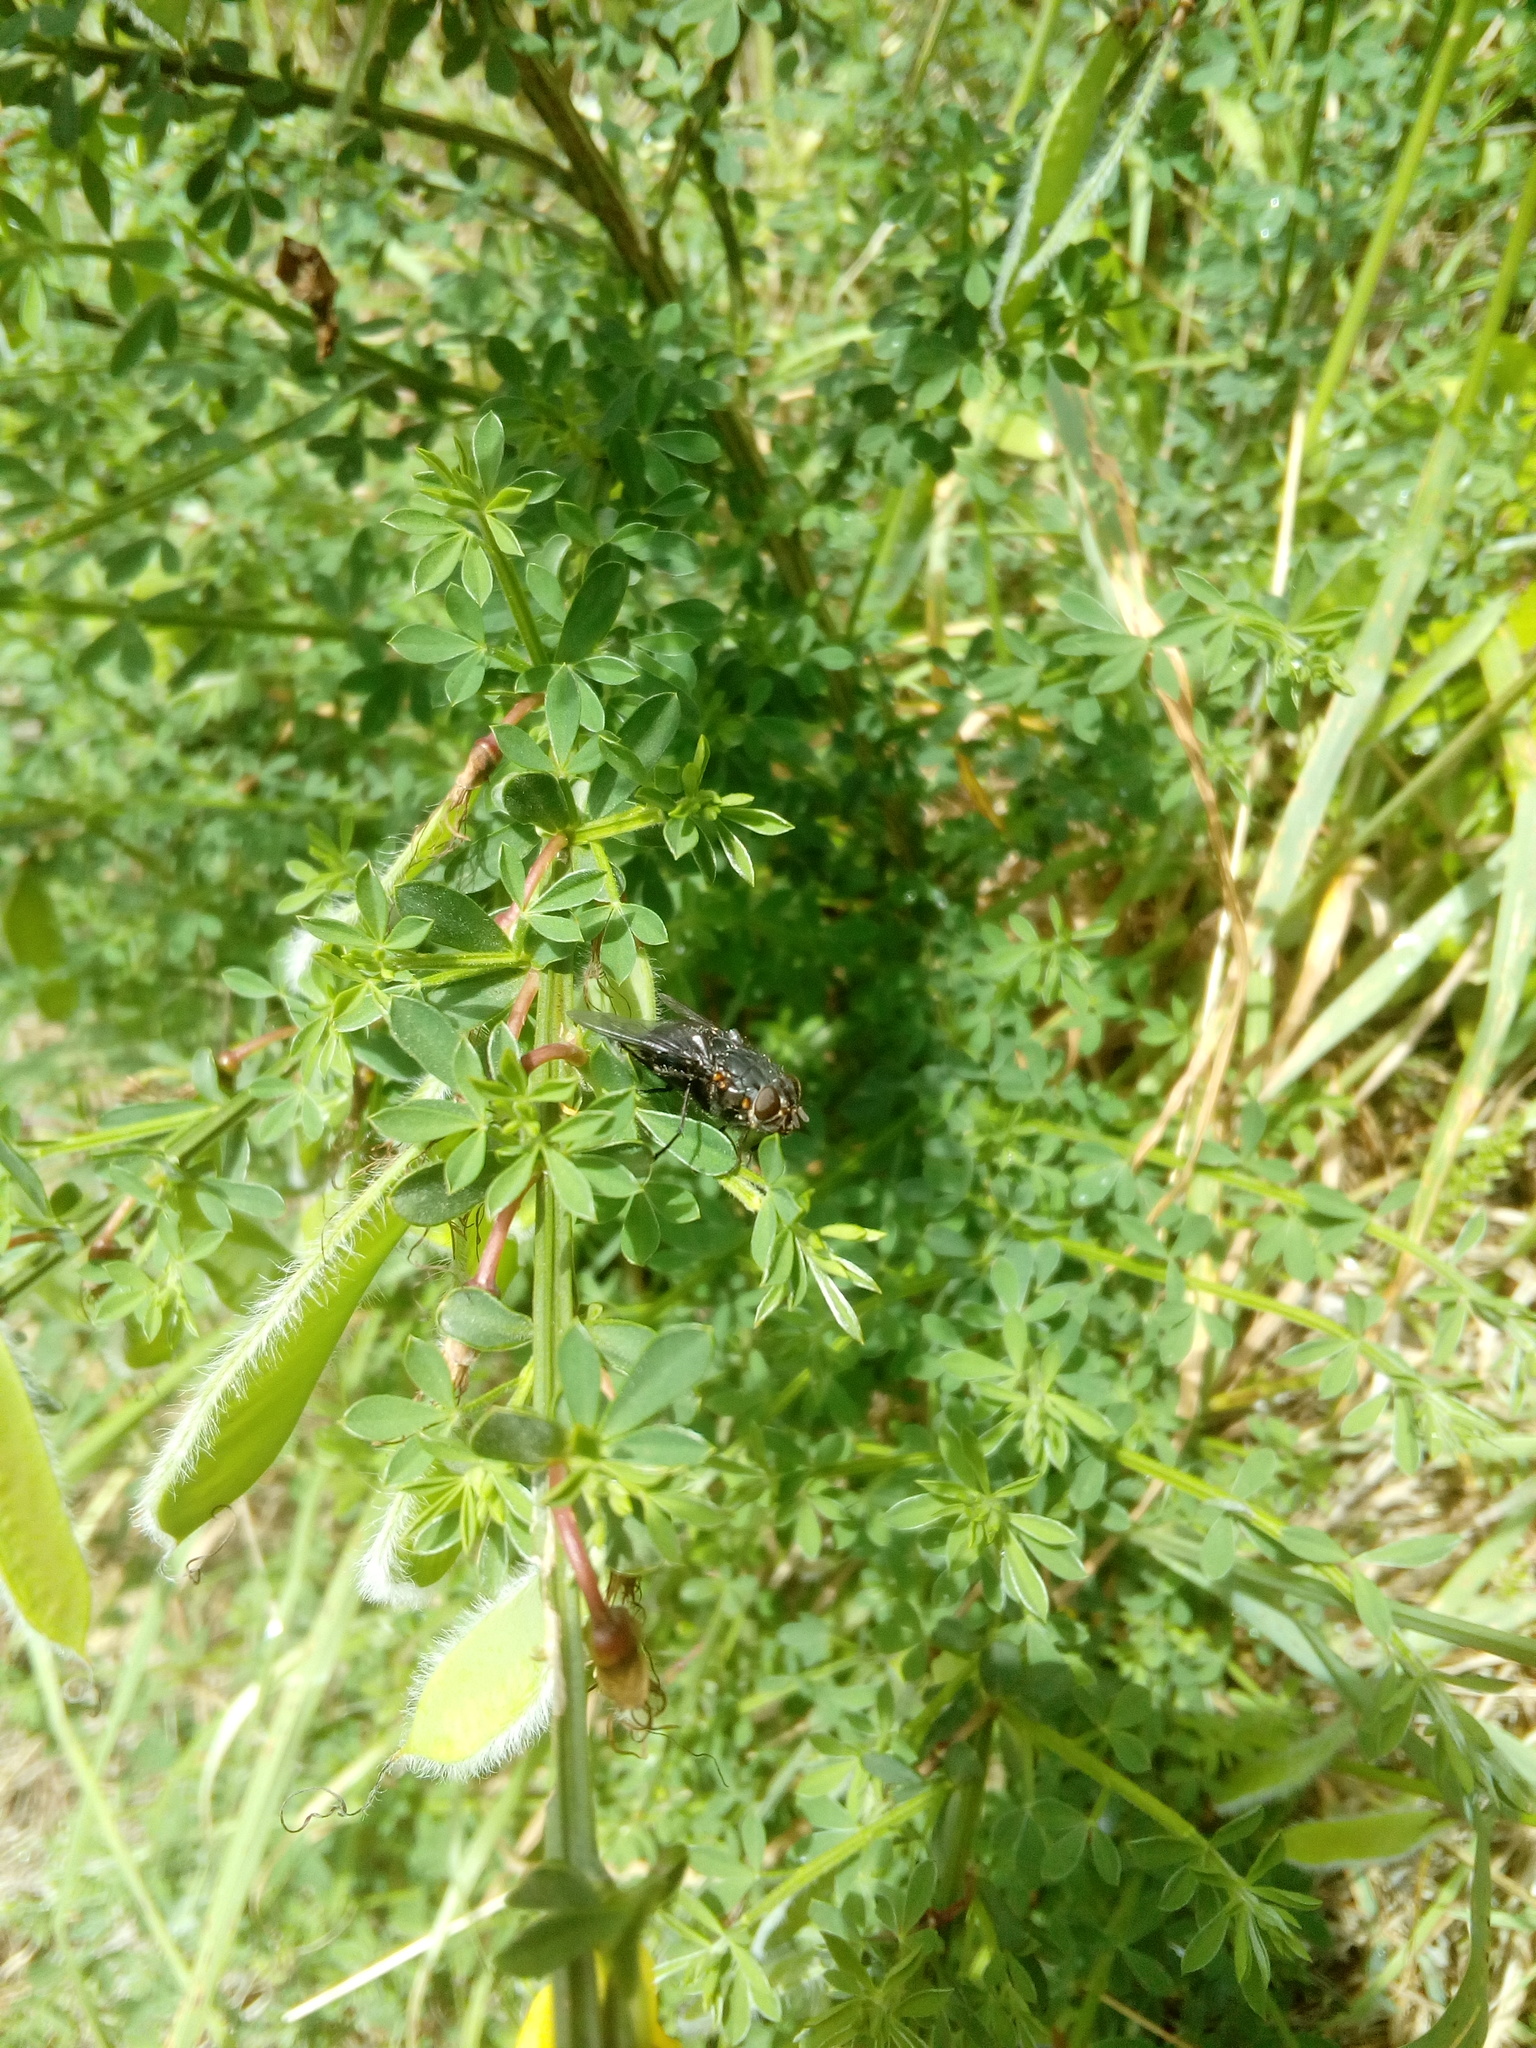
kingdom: Animalia
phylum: Arthropoda
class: Insecta
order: Diptera
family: Calliphoridae
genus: Calliphora
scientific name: Calliphora quadrimaculata
